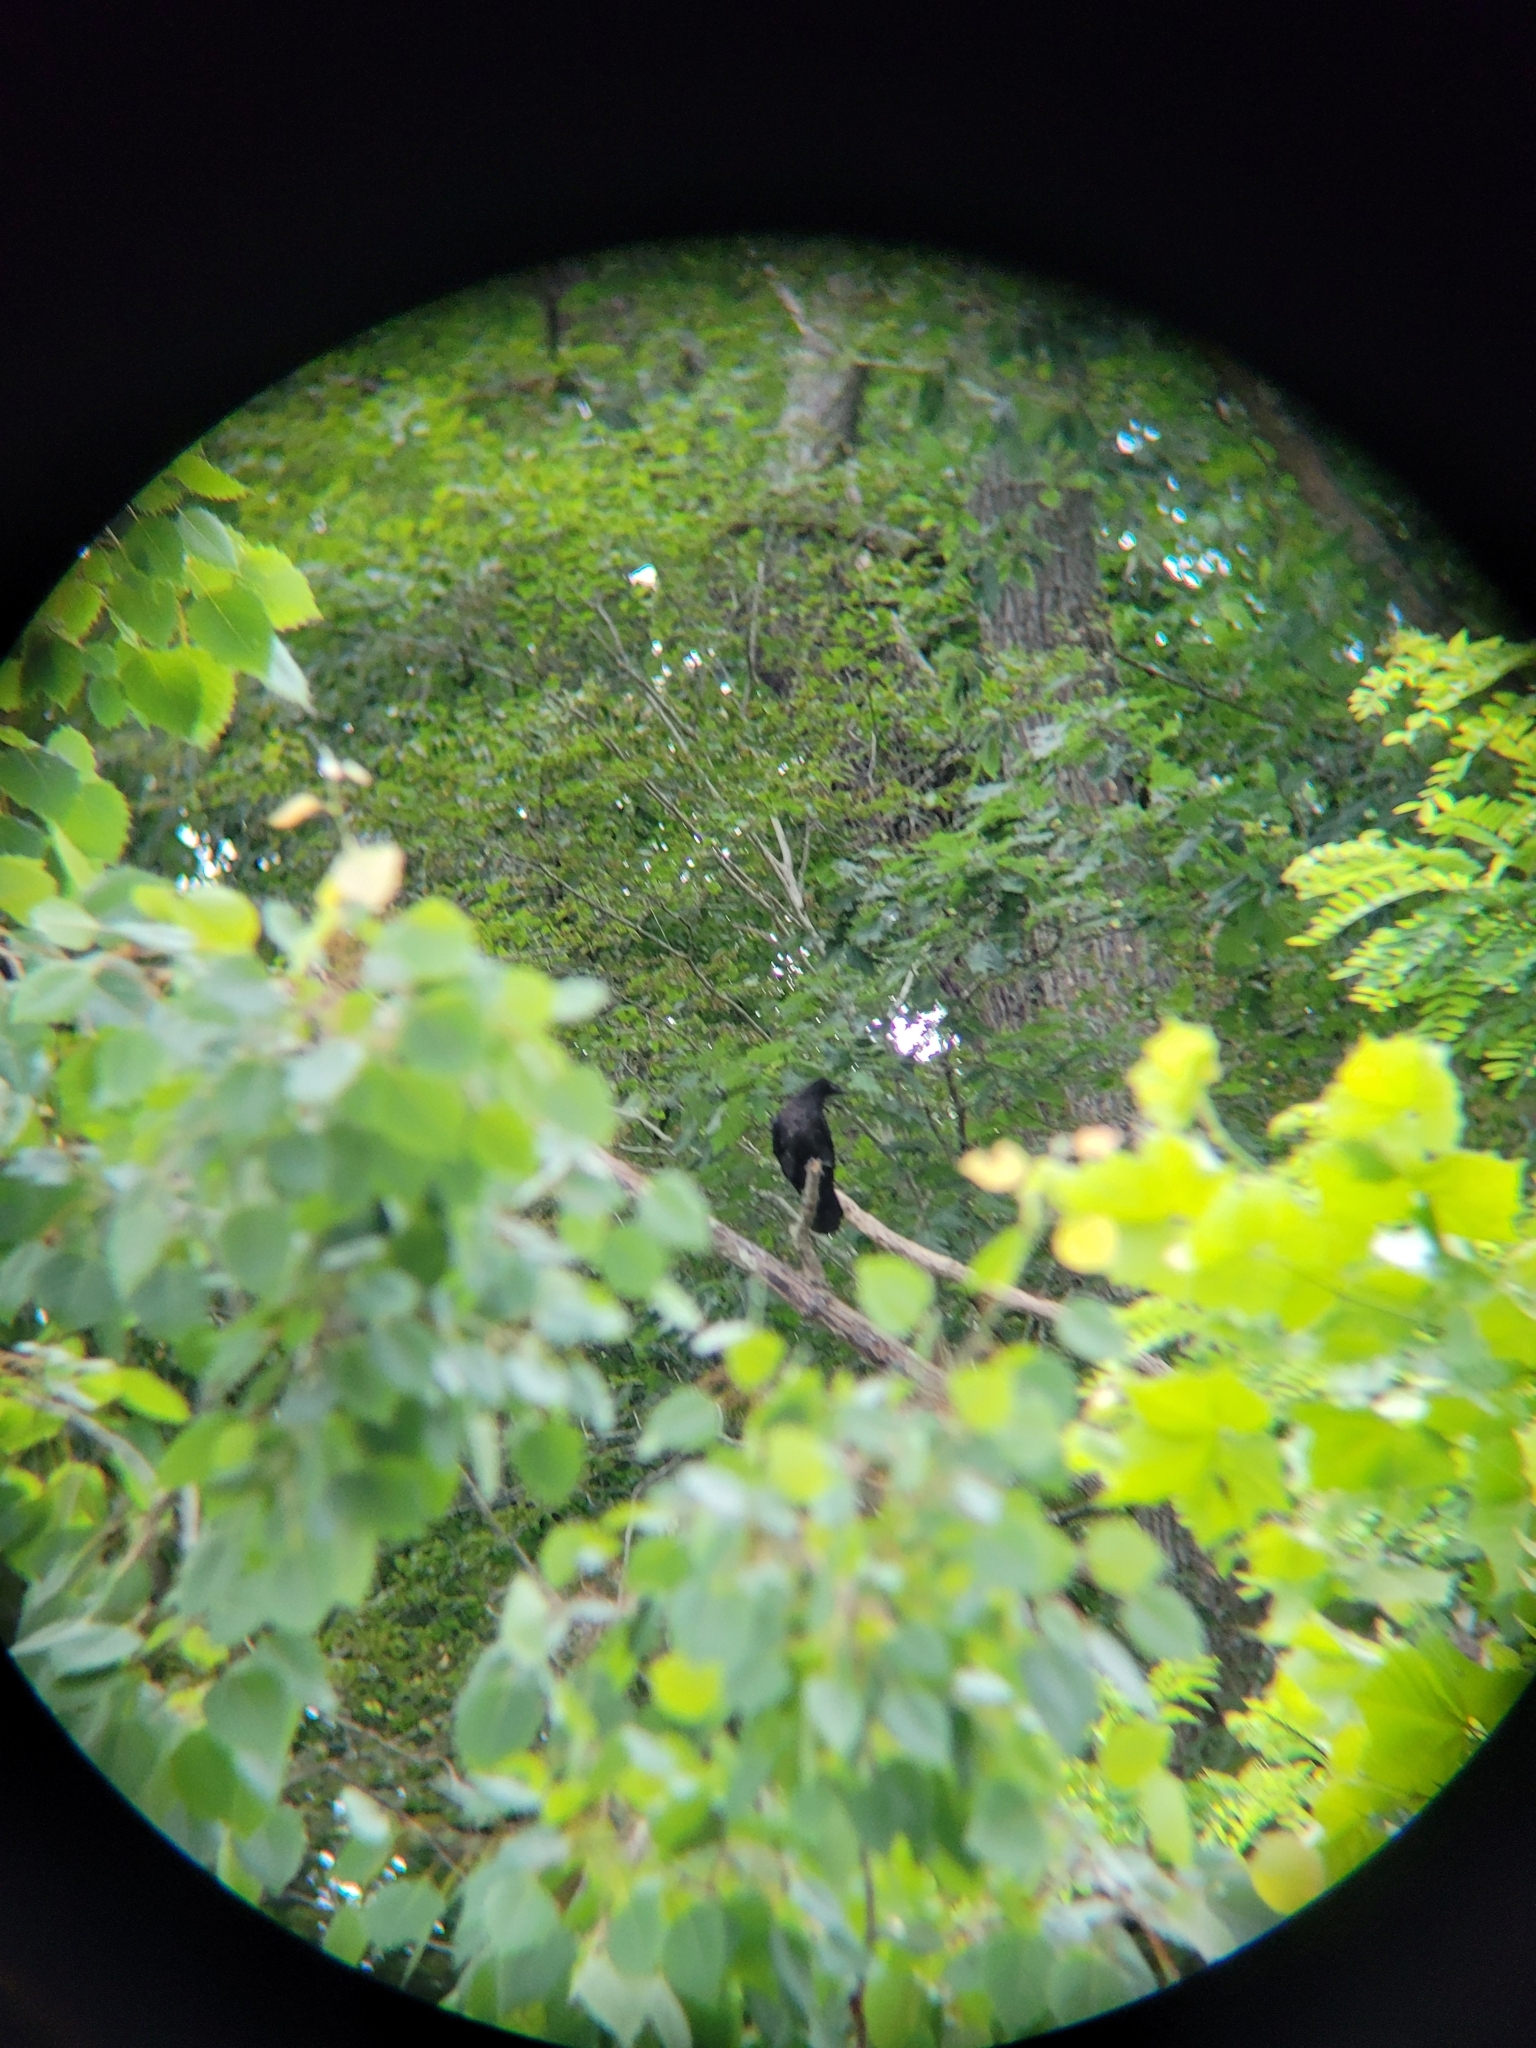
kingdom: Animalia
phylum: Chordata
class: Aves
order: Passeriformes
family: Corvidae
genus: Corvus
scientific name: Corvus corax
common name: Common raven
